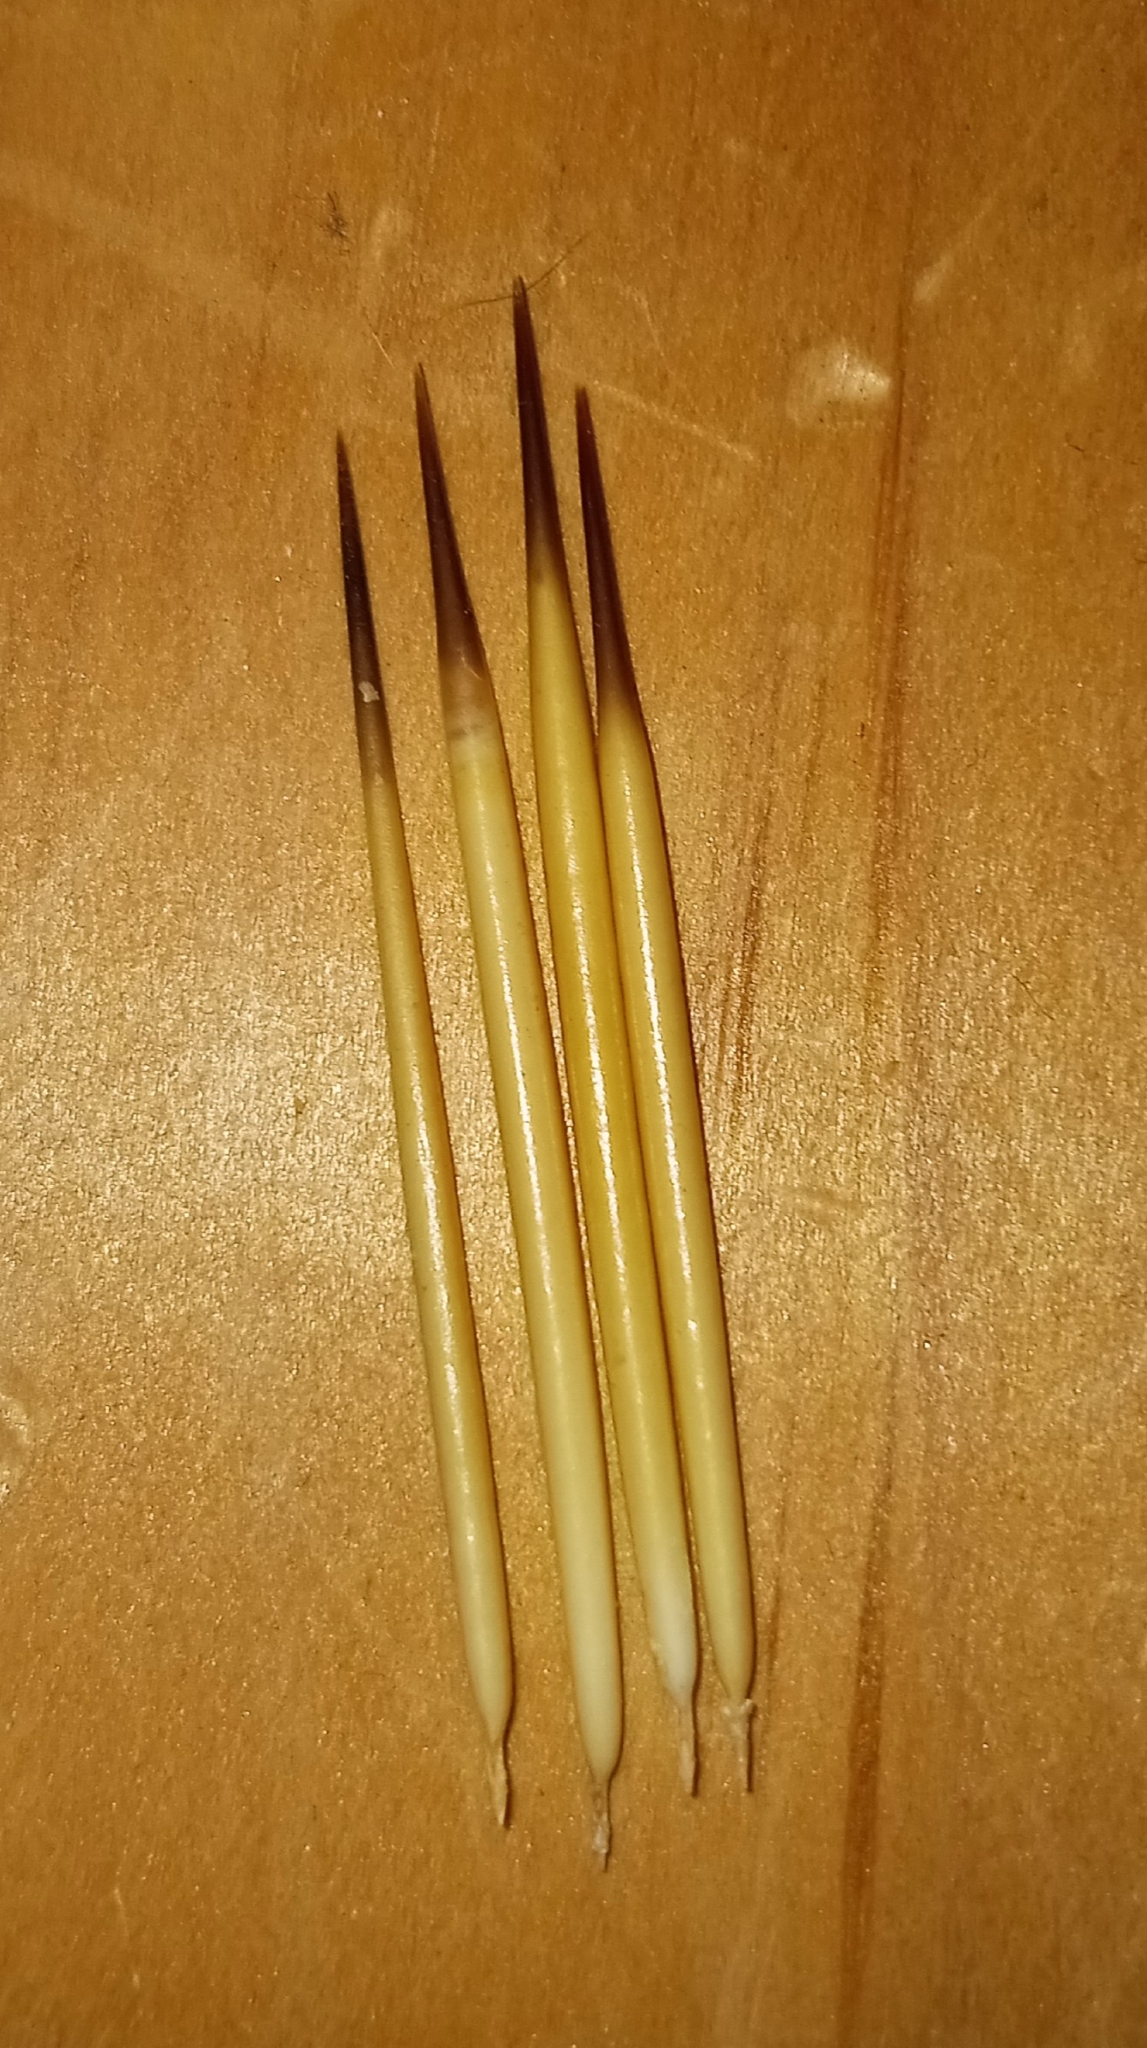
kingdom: Animalia
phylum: Chordata
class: Mammalia
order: Rodentia
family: Erethizontidae
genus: Erethizon
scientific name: Erethizon dorsatus
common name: North american porcupine
